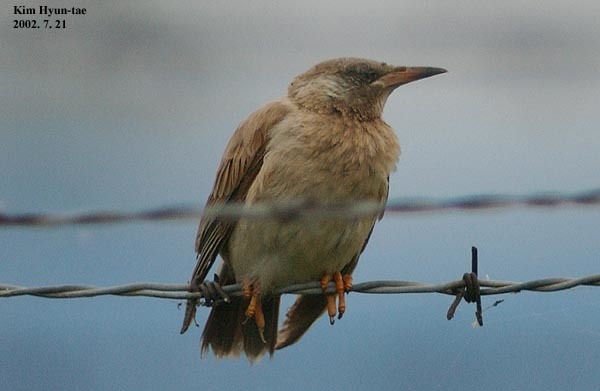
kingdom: Animalia
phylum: Chordata
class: Aves
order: Passeriformes
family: Sturnidae
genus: Spodiopsar
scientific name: Spodiopsar cineraceus
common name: White-cheeked starling
